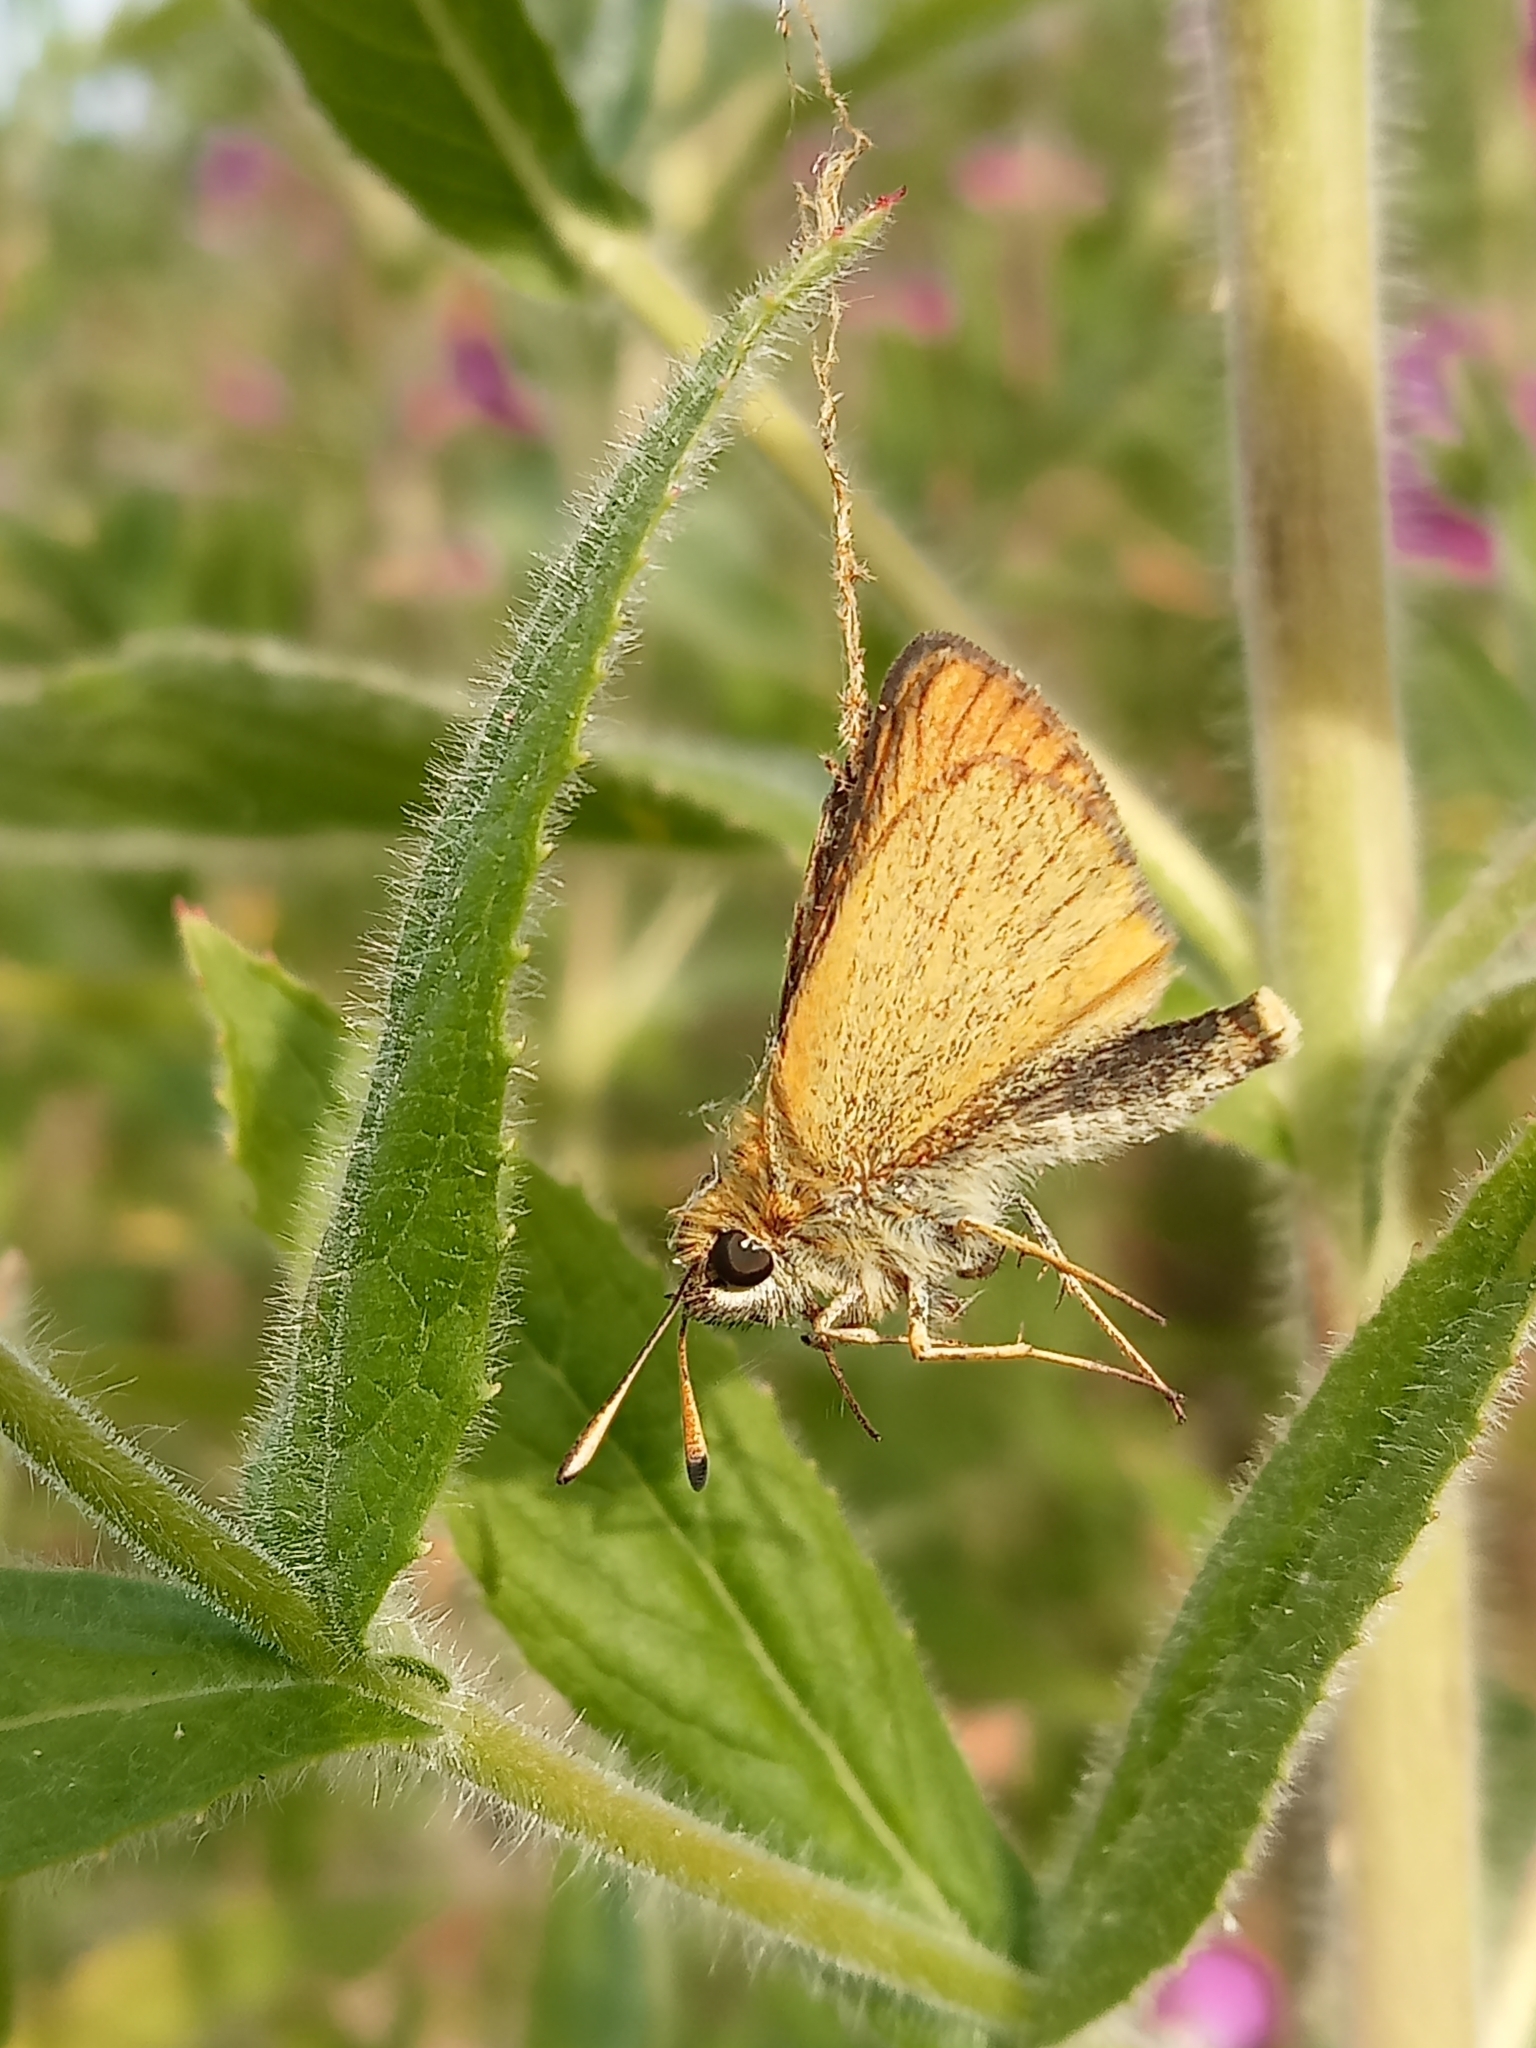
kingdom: Animalia
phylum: Arthropoda
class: Insecta
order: Lepidoptera
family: Hesperiidae
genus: Thymelicus
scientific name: Thymelicus lineola
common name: Essex skipper
